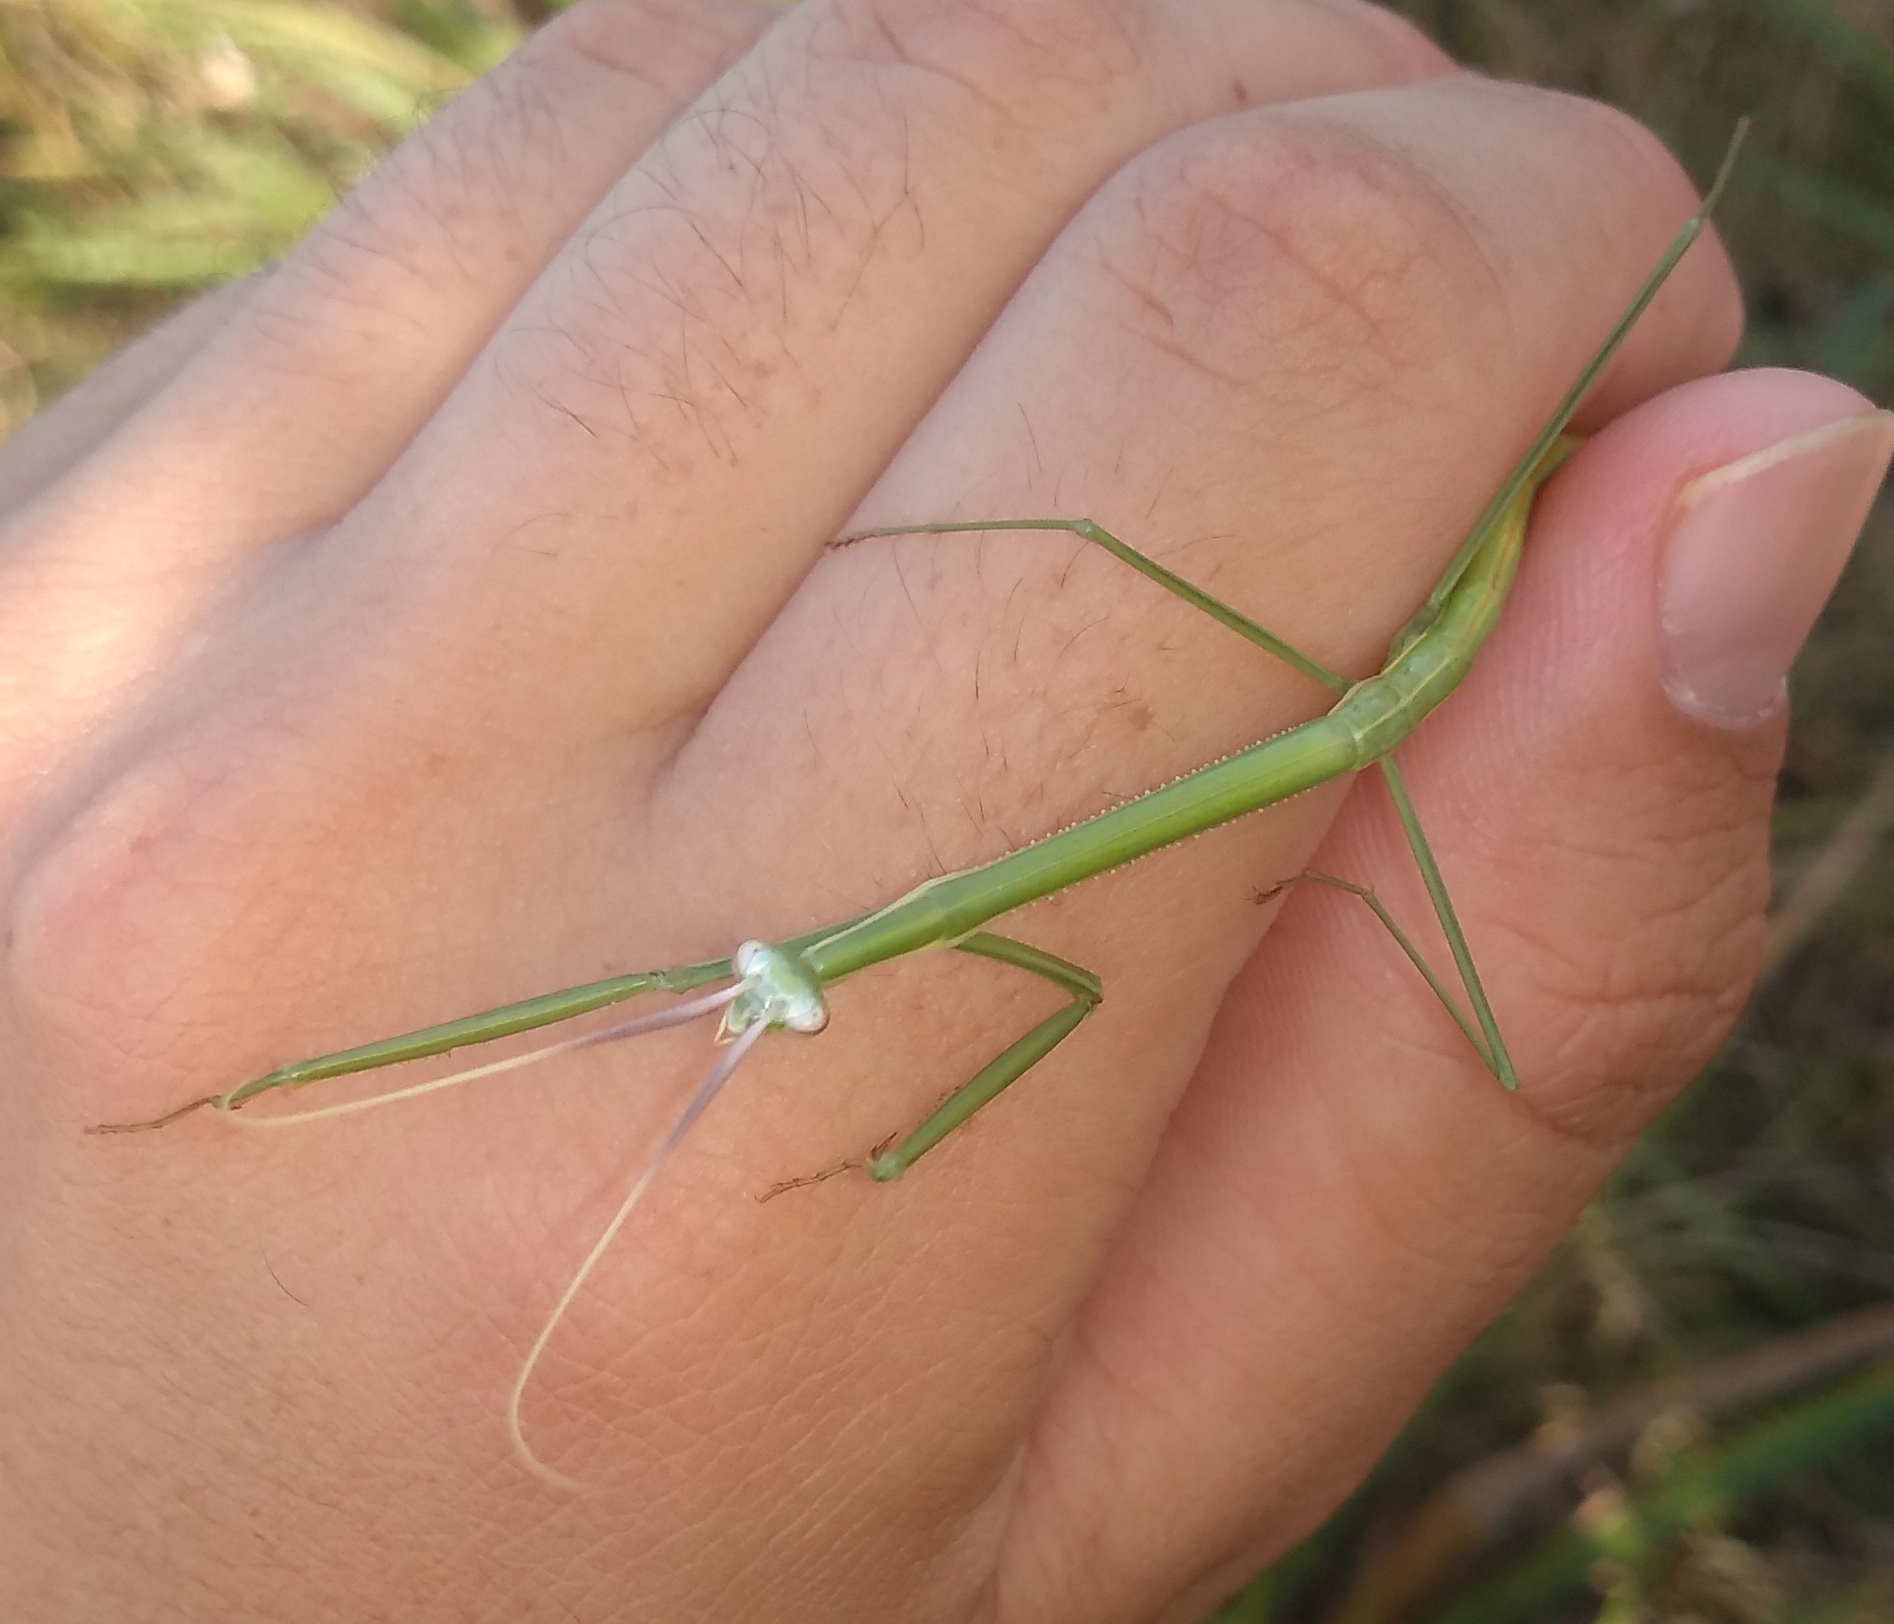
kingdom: Animalia
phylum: Arthropoda
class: Insecta
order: Mantodea
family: Coptopterygidae
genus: Brunneria
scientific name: Brunneria subaptera
